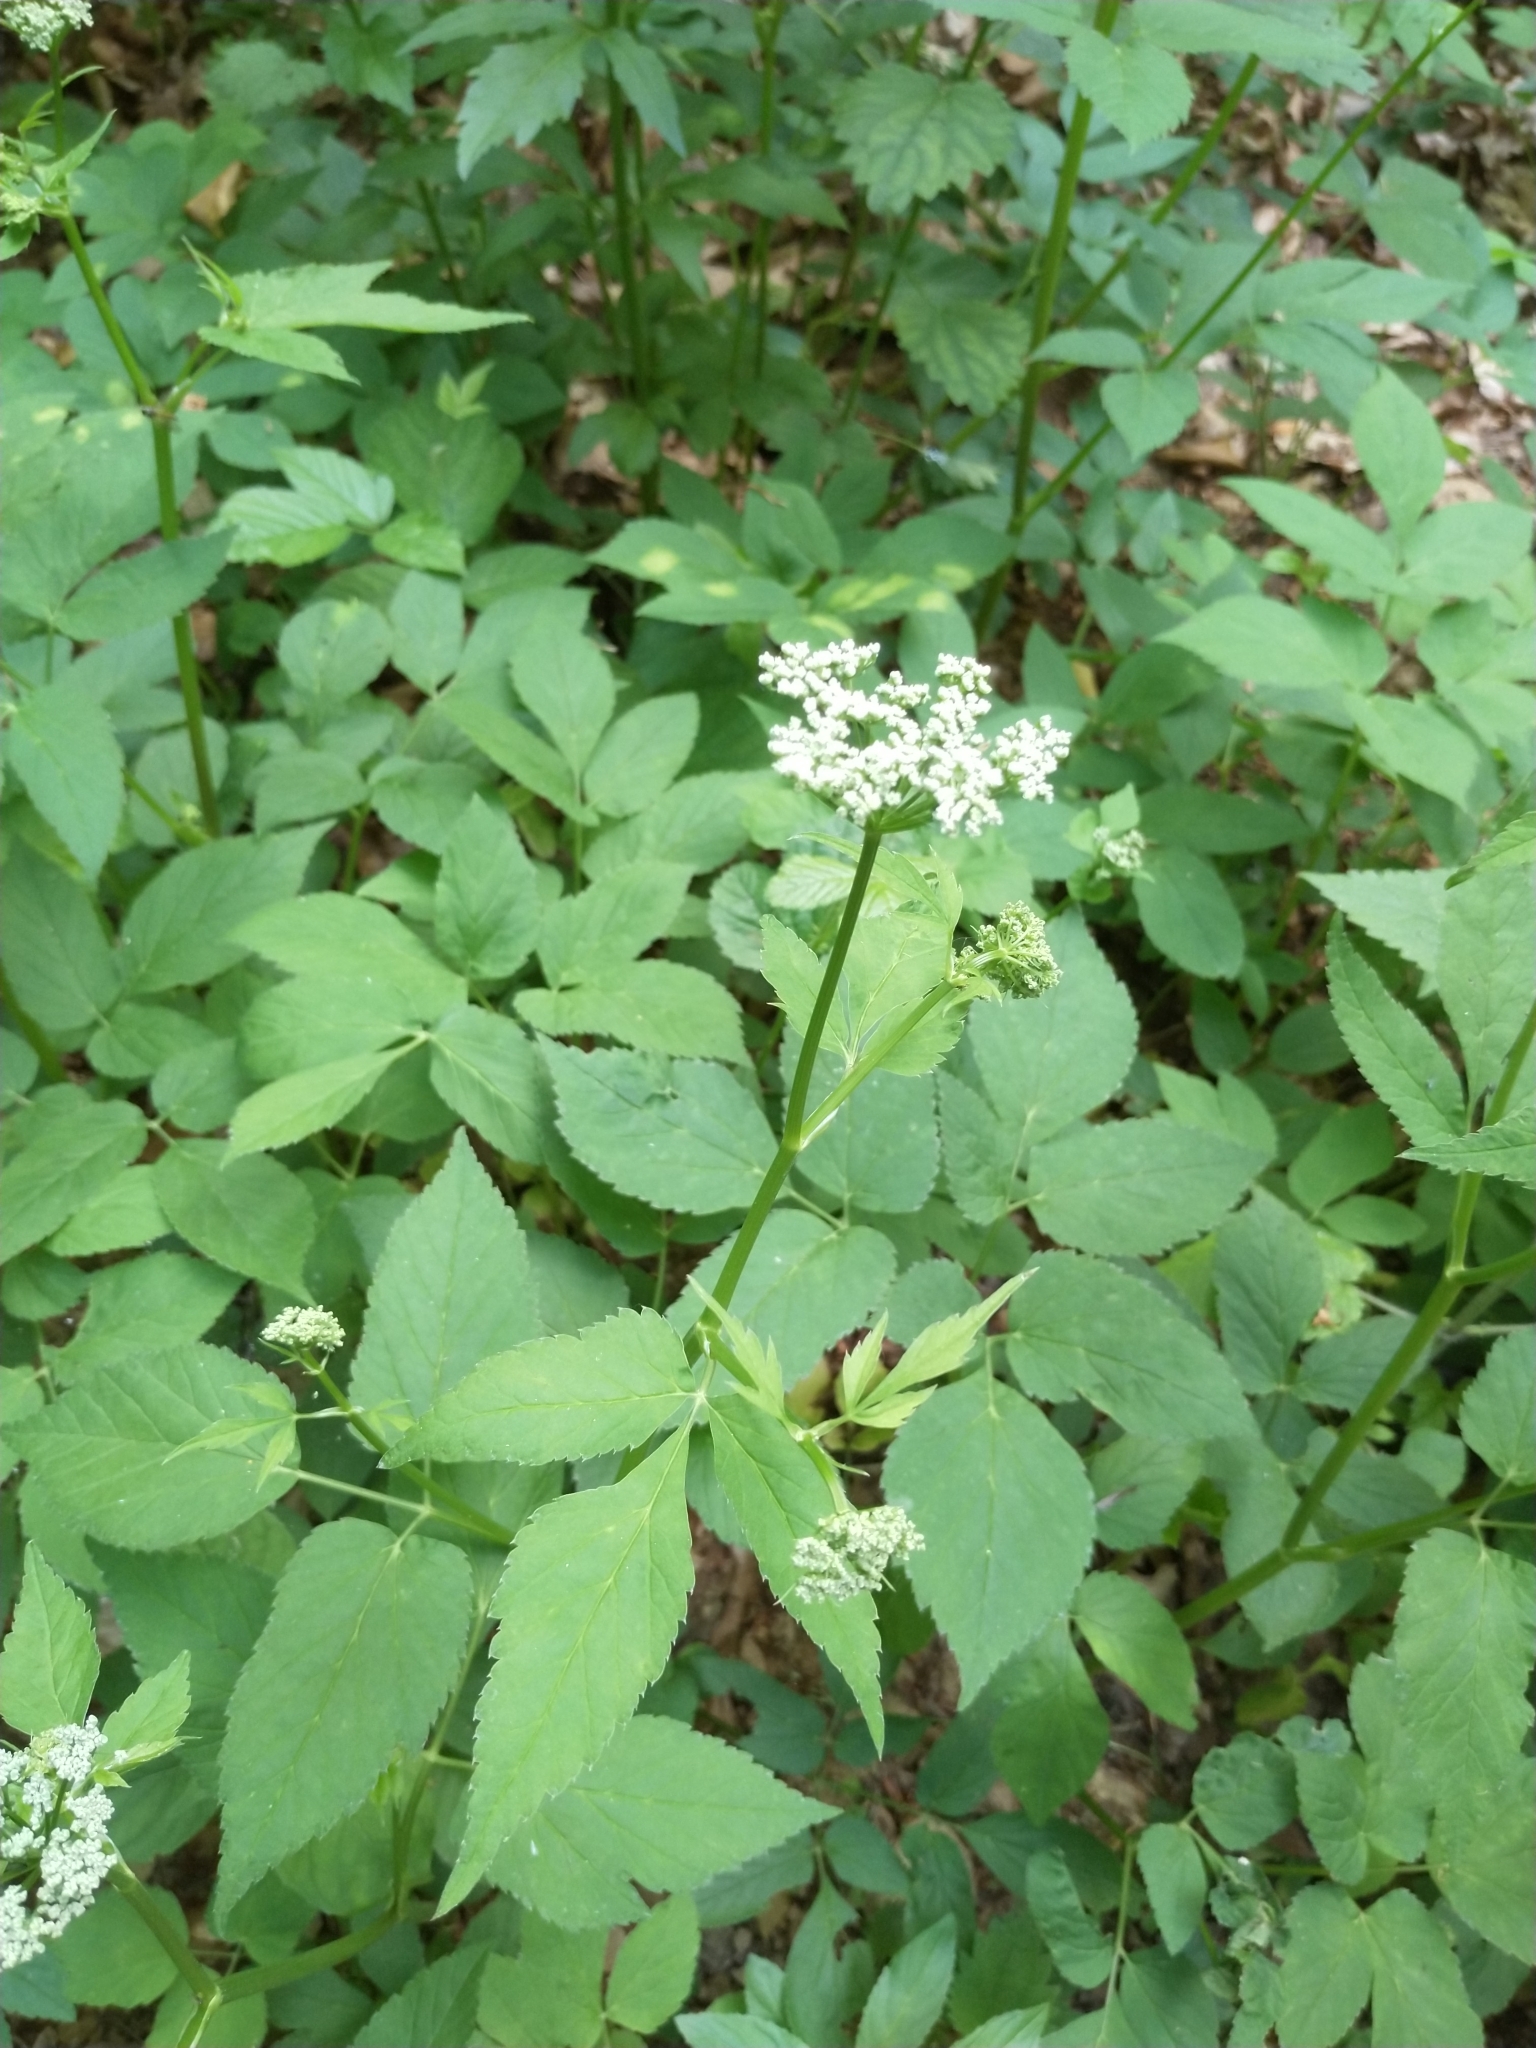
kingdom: Plantae
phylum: Tracheophyta
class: Magnoliopsida
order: Apiales
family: Apiaceae
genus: Aegopodium
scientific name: Aegopodium podagraria
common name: Ground-elder
